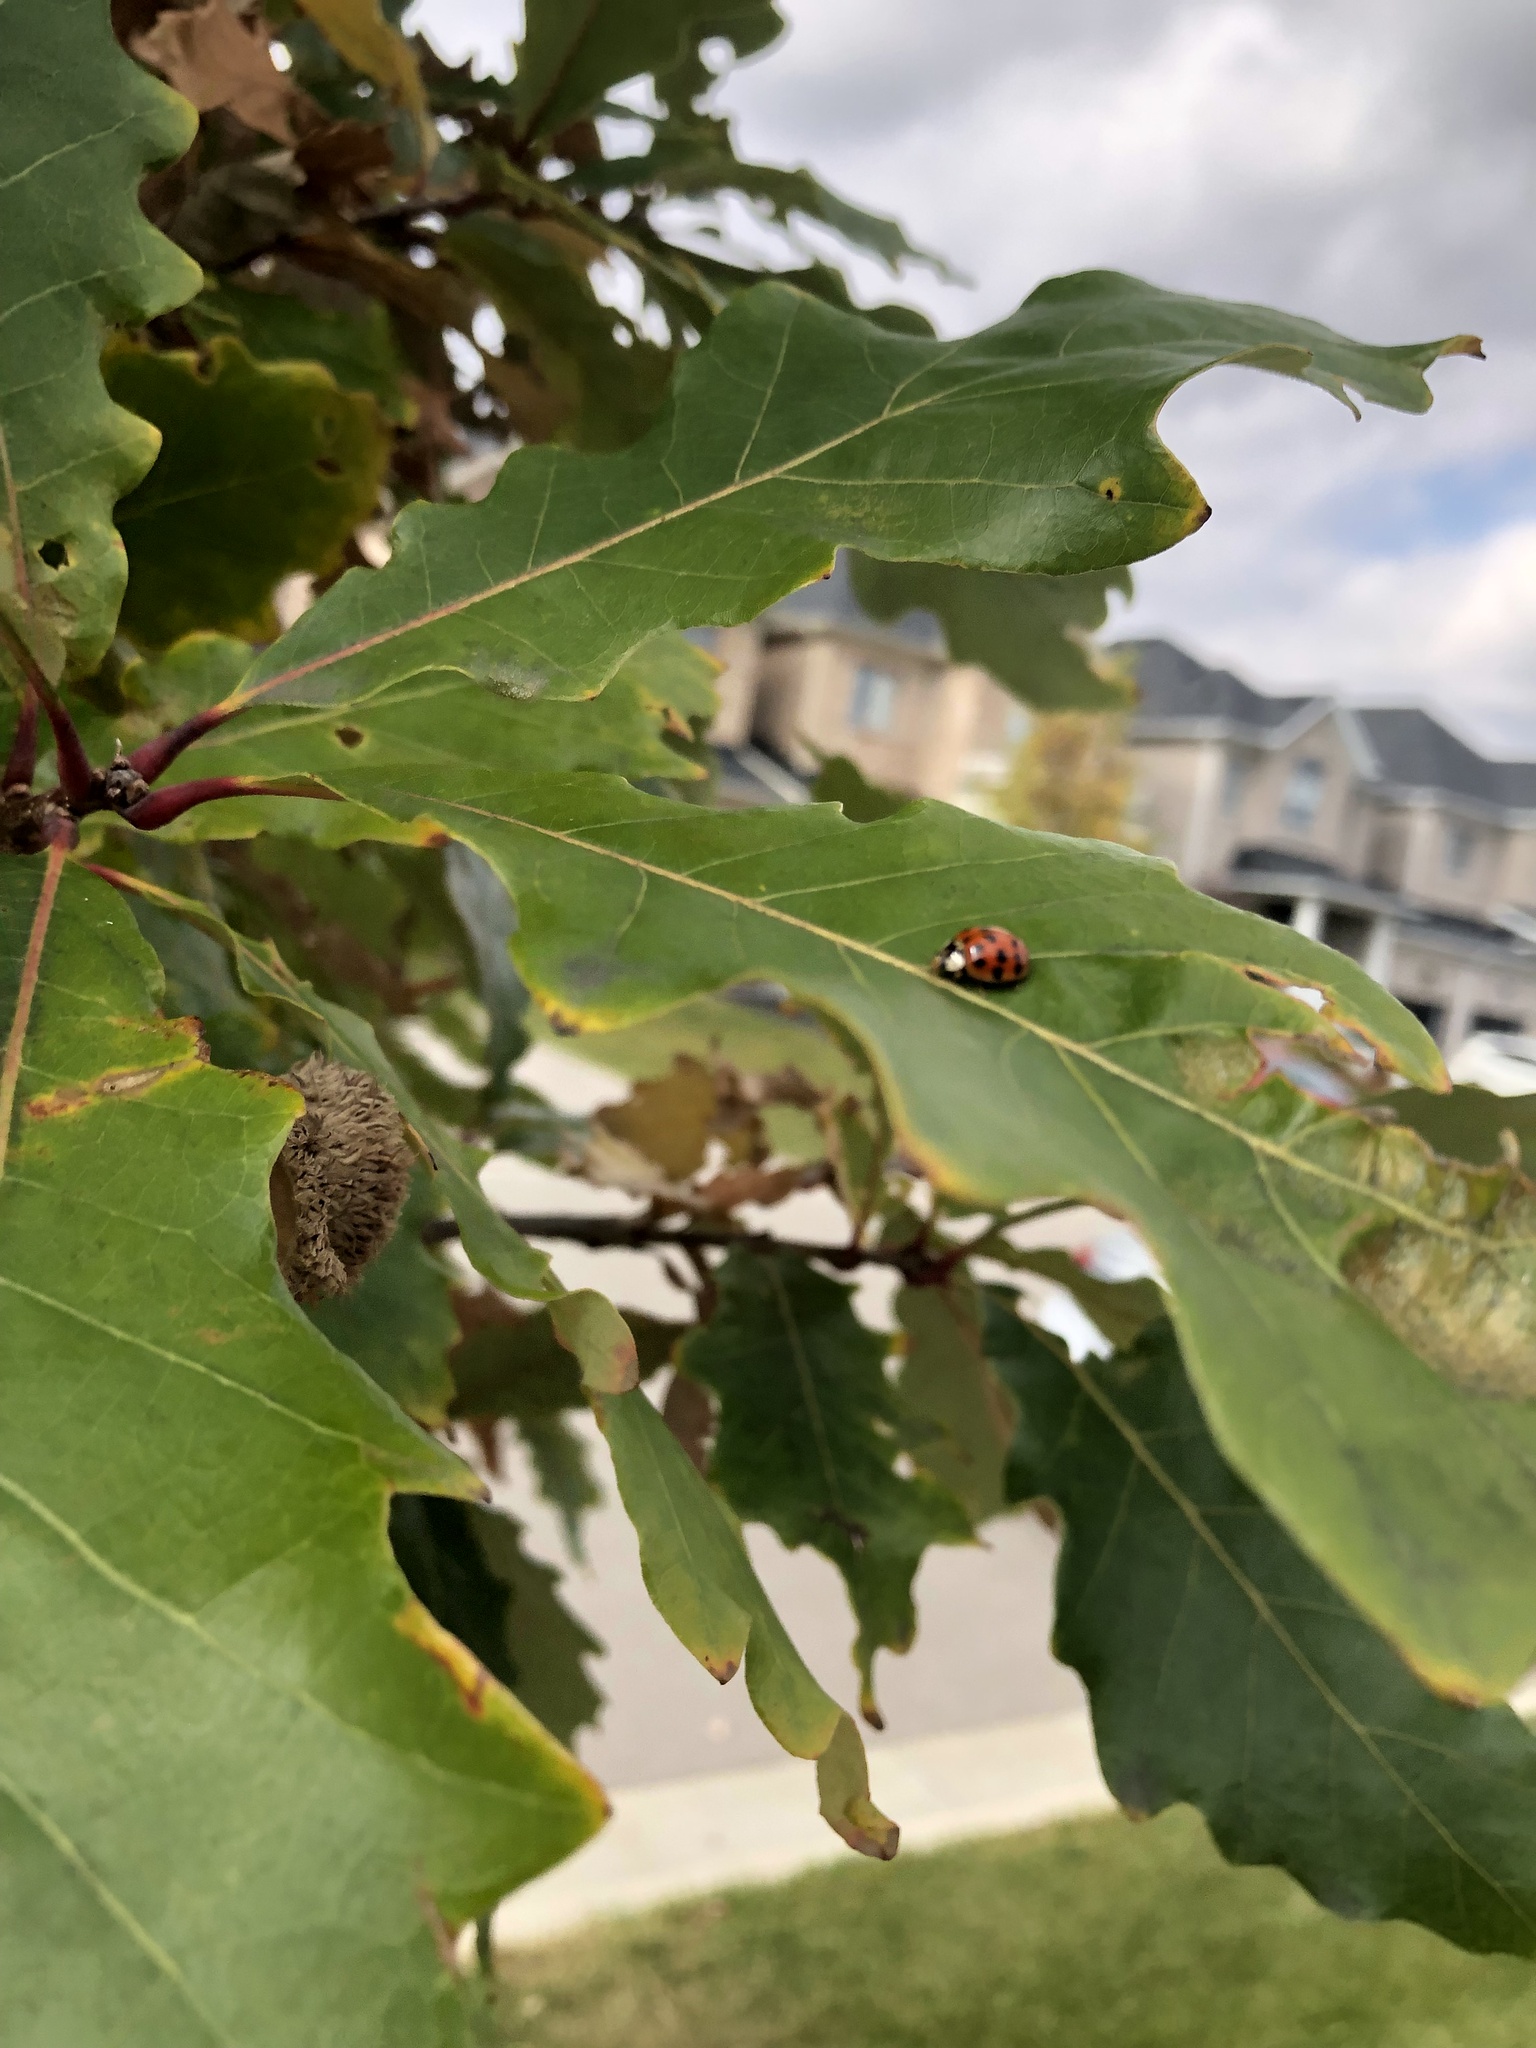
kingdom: Animalia
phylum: Arthropoda
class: Insecta
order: Coleoptera
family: Coccinellidae
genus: Harmonia
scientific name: Harmonia axyridis
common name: Harlequin ladybird
